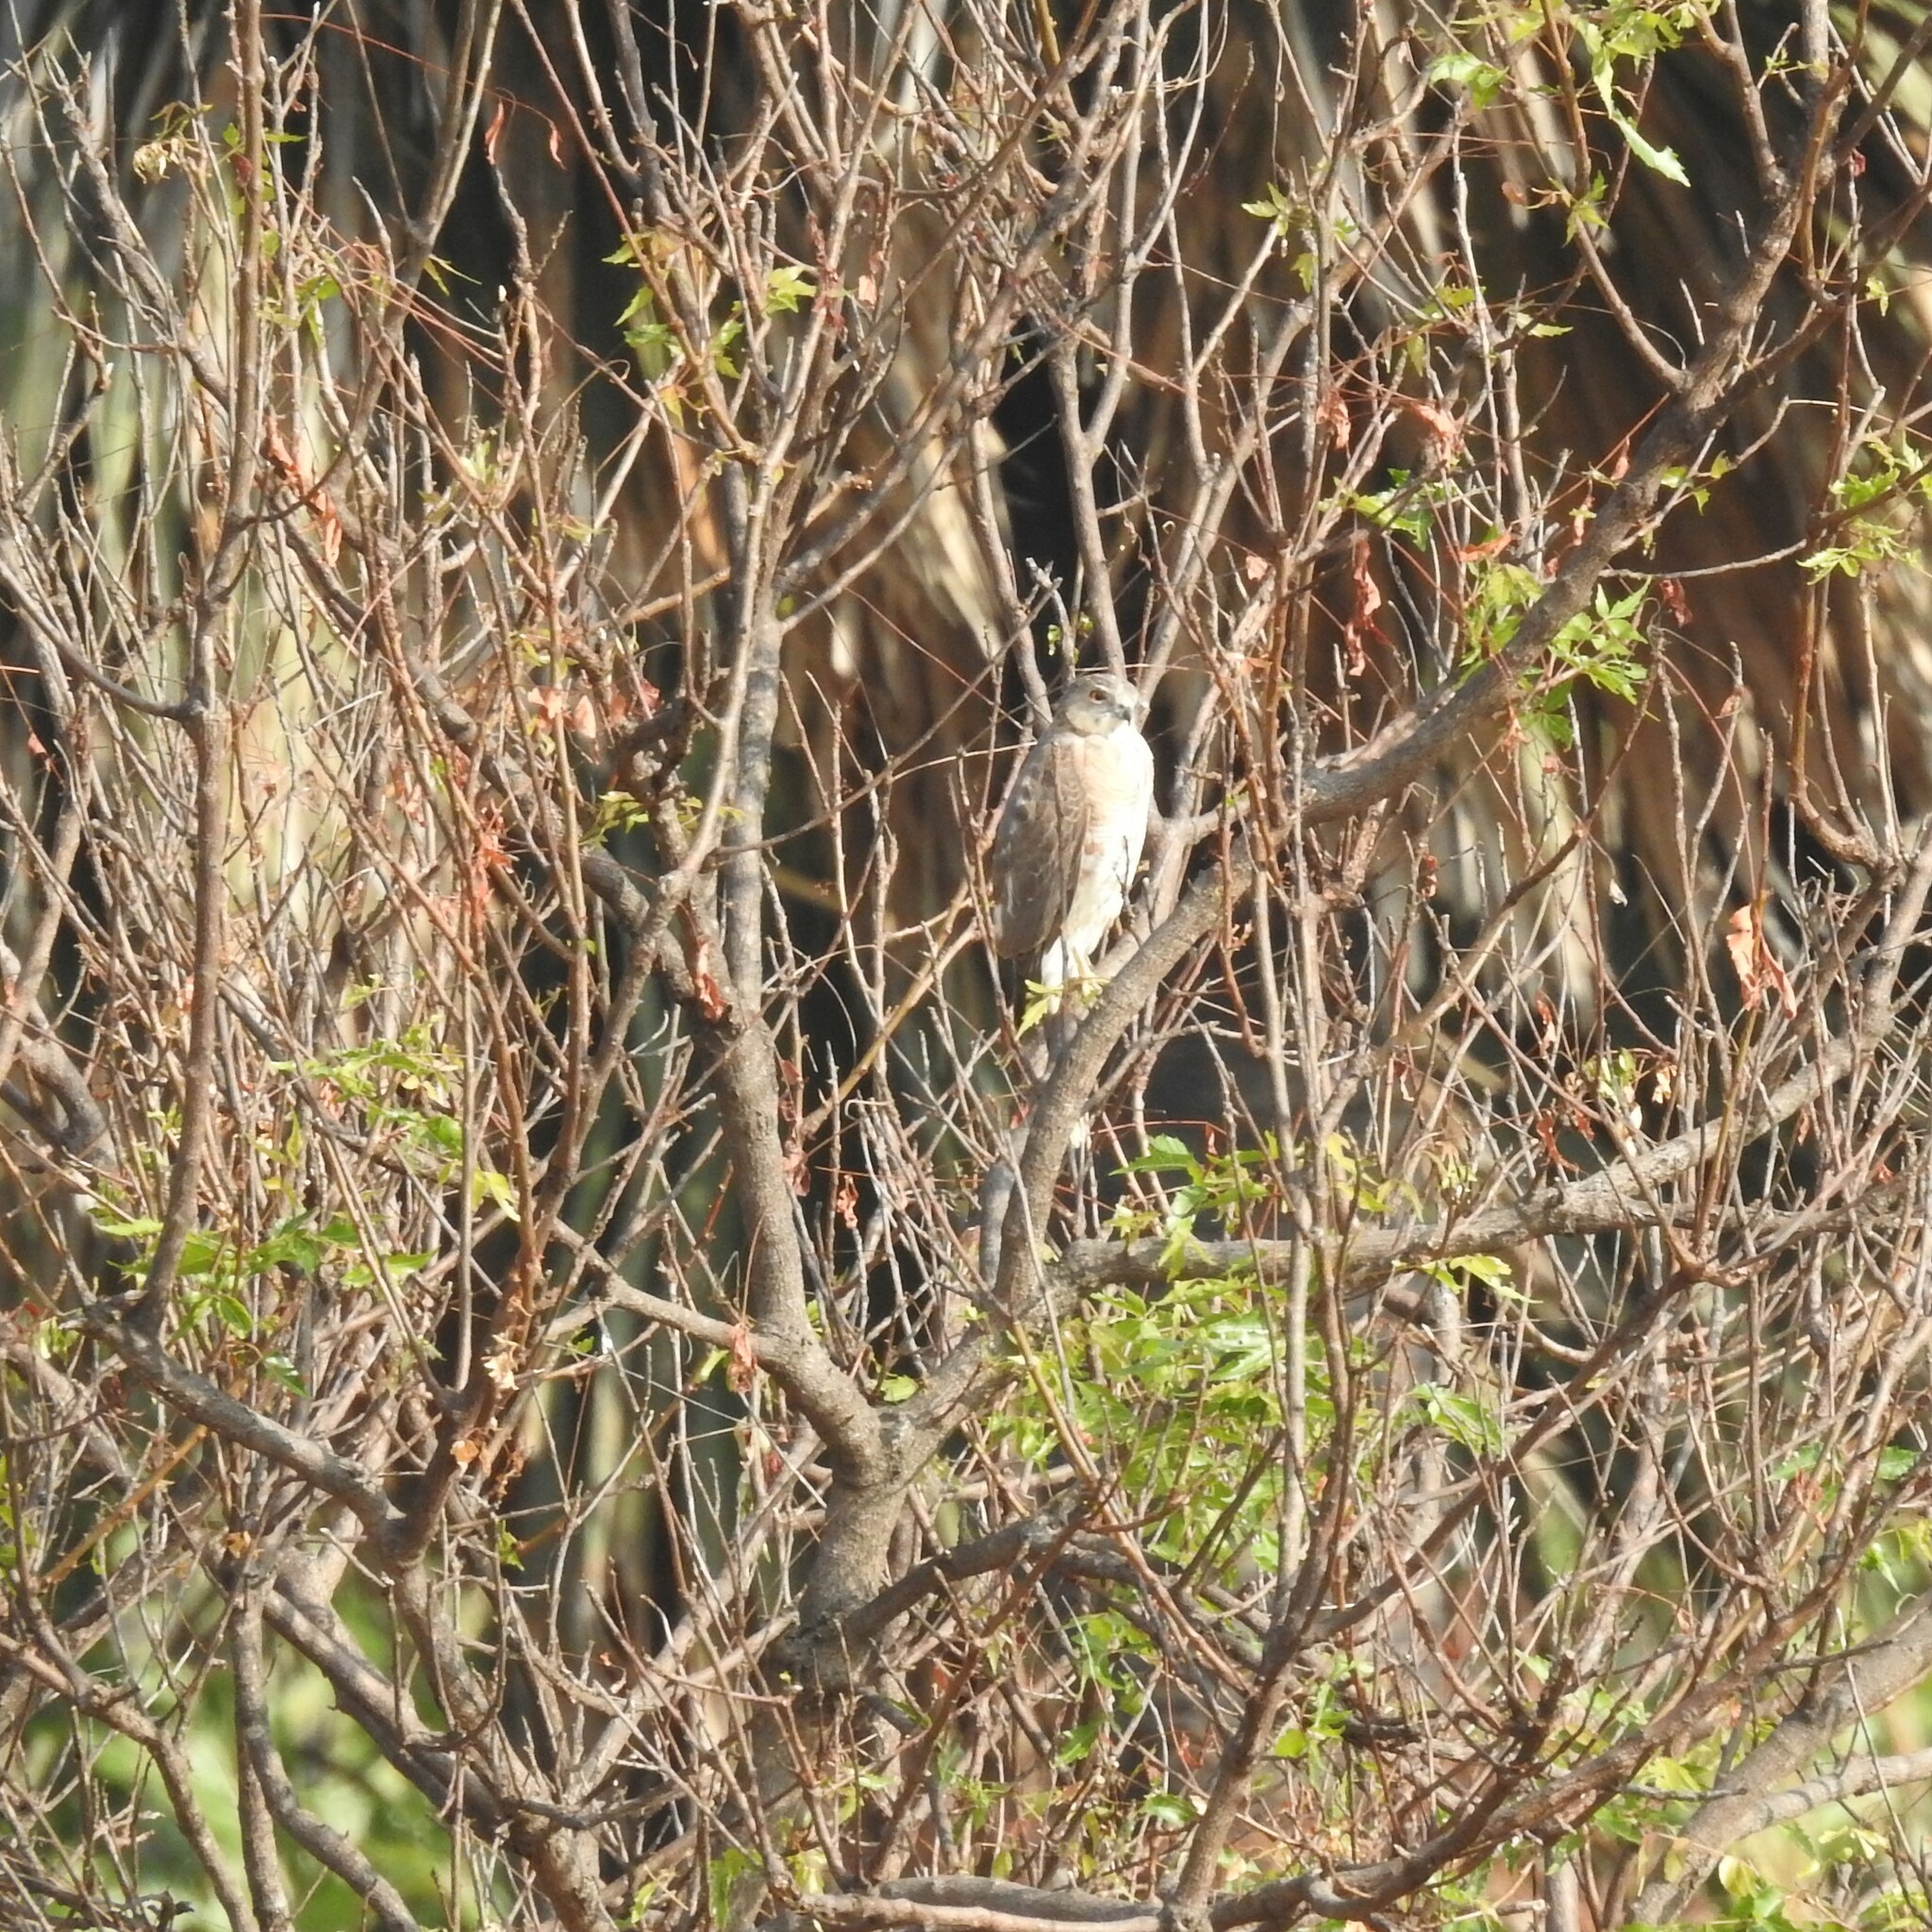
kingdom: Animalia
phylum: Chordata
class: Aves
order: Accipitriformes
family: Accipitridae
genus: Accipiter
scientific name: Accipiter badius
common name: Shikra
